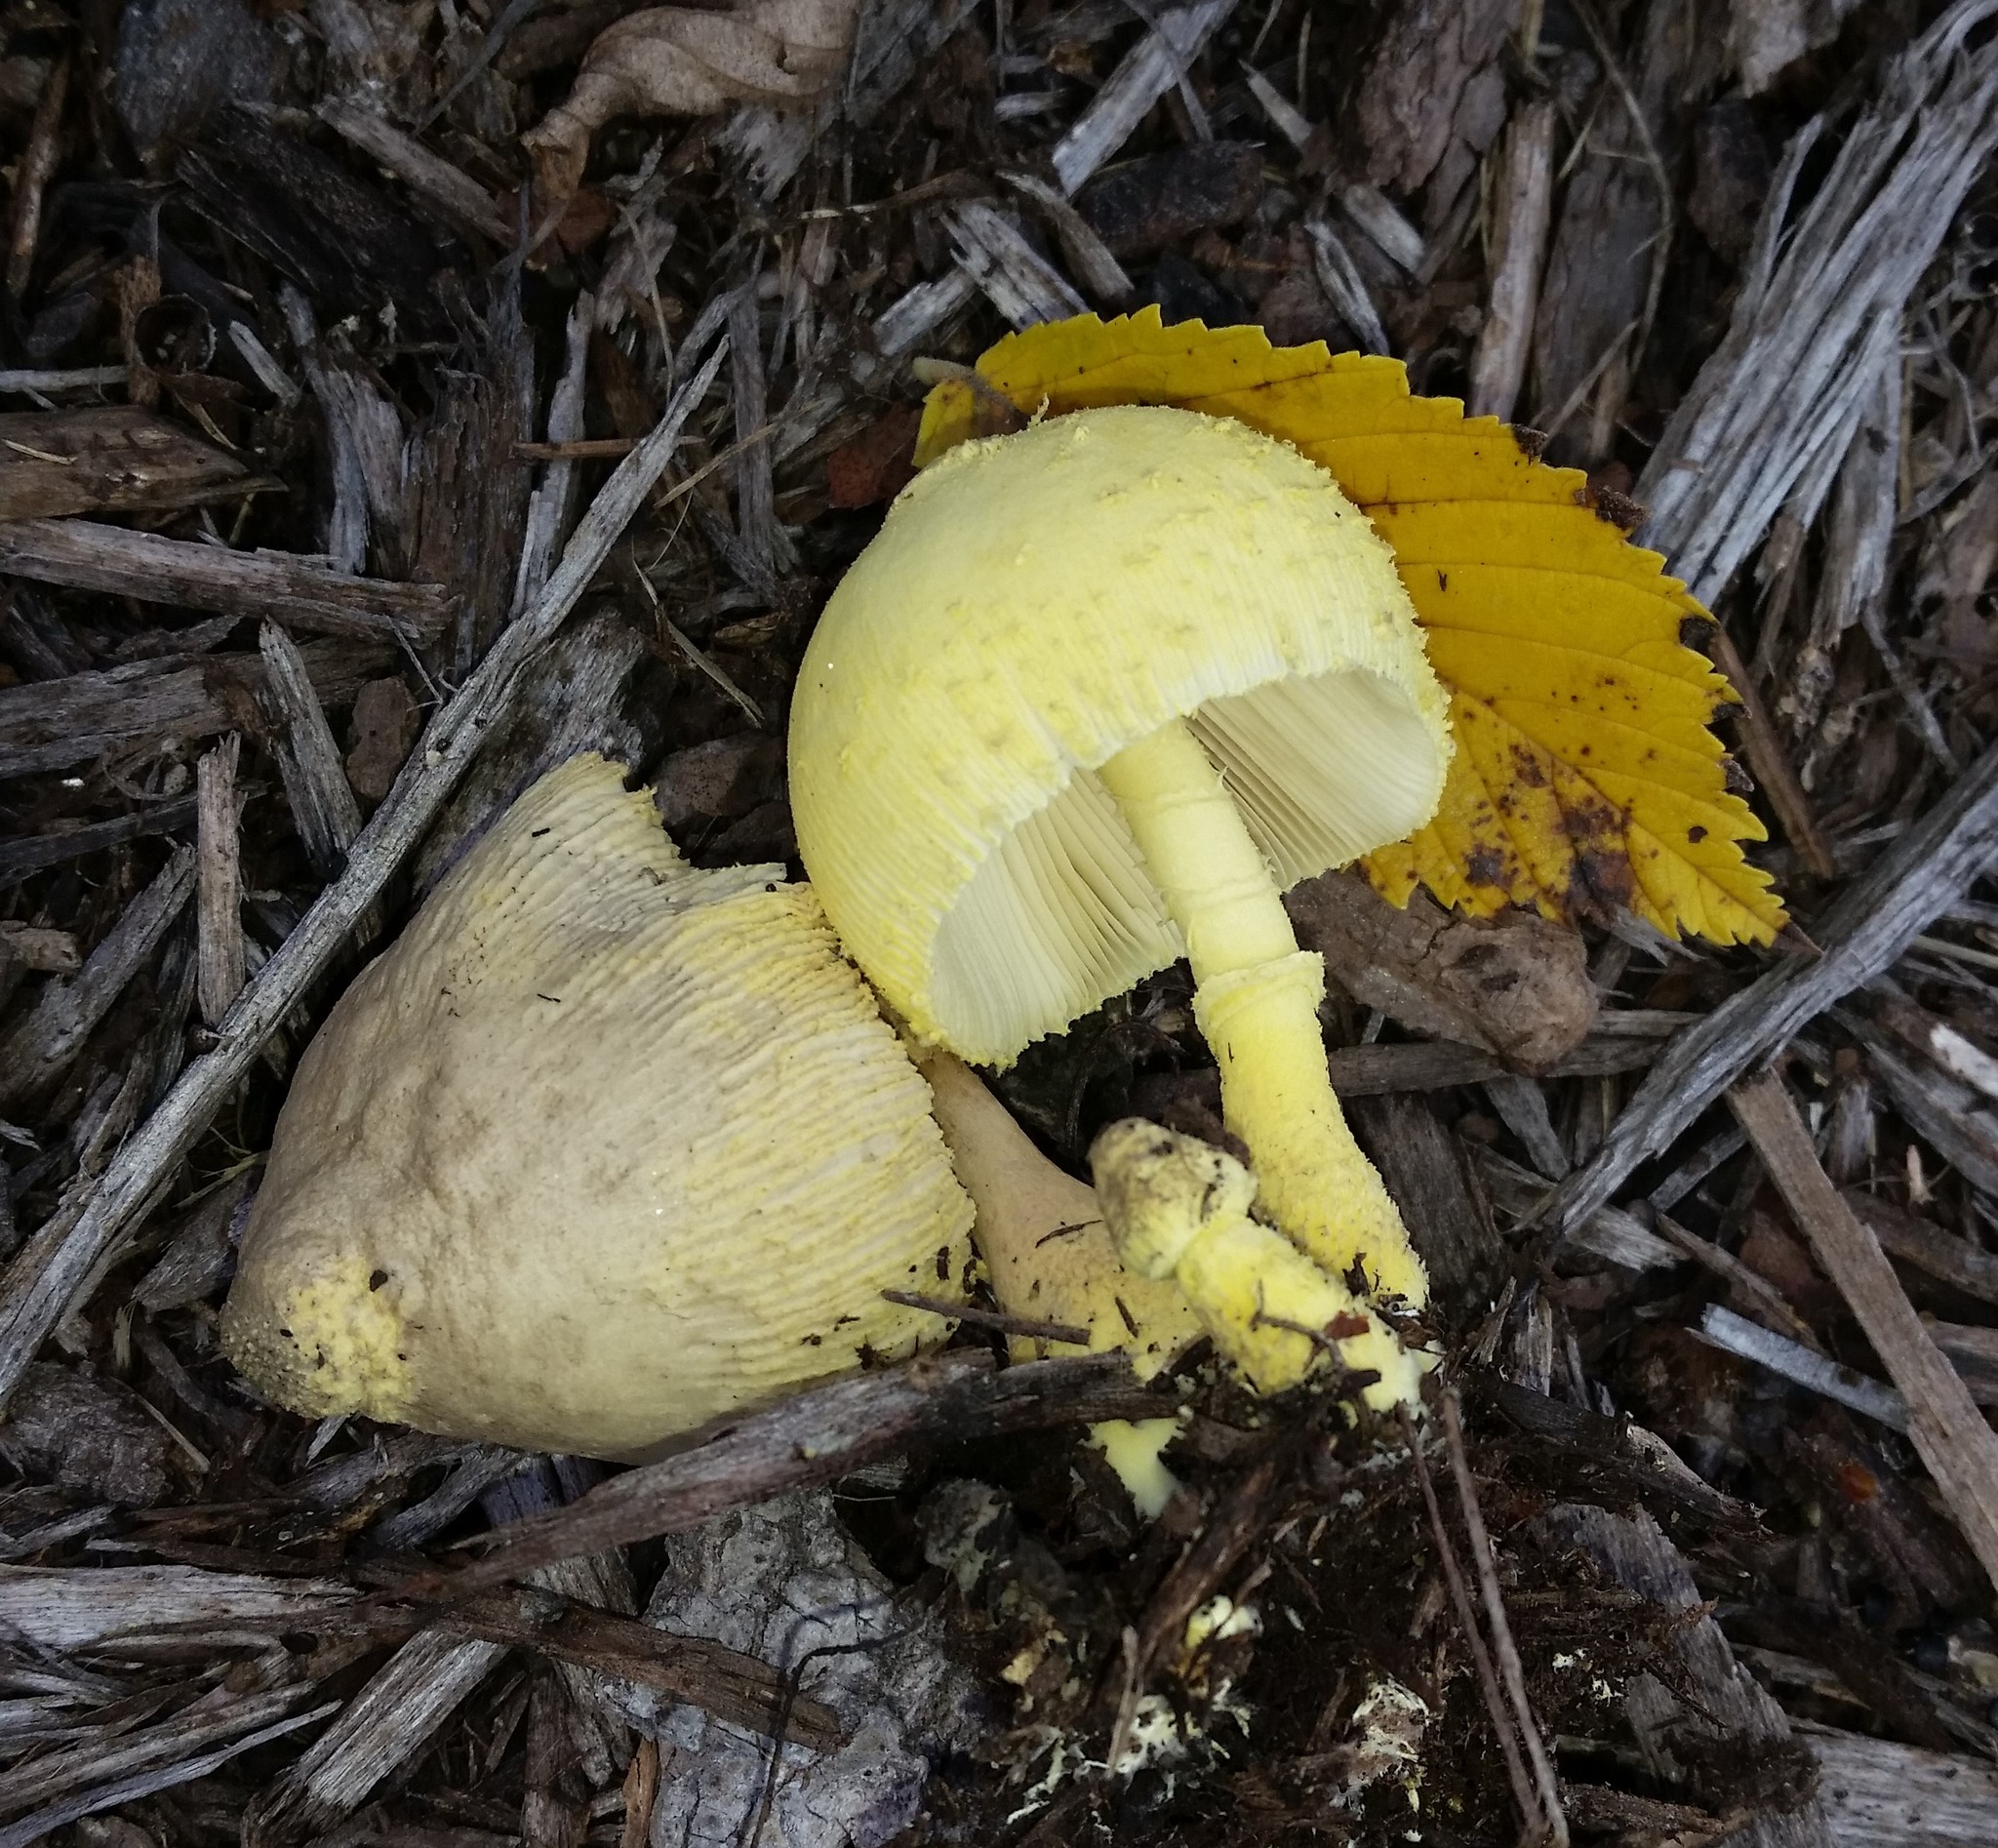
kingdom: Fungi
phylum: Basidiomycota
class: Agaricomycetes
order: Agaricales
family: Agaricaceae
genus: Leucocoprinus
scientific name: Leucocoprinus birnbaumii
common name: Plantpot dapperling
